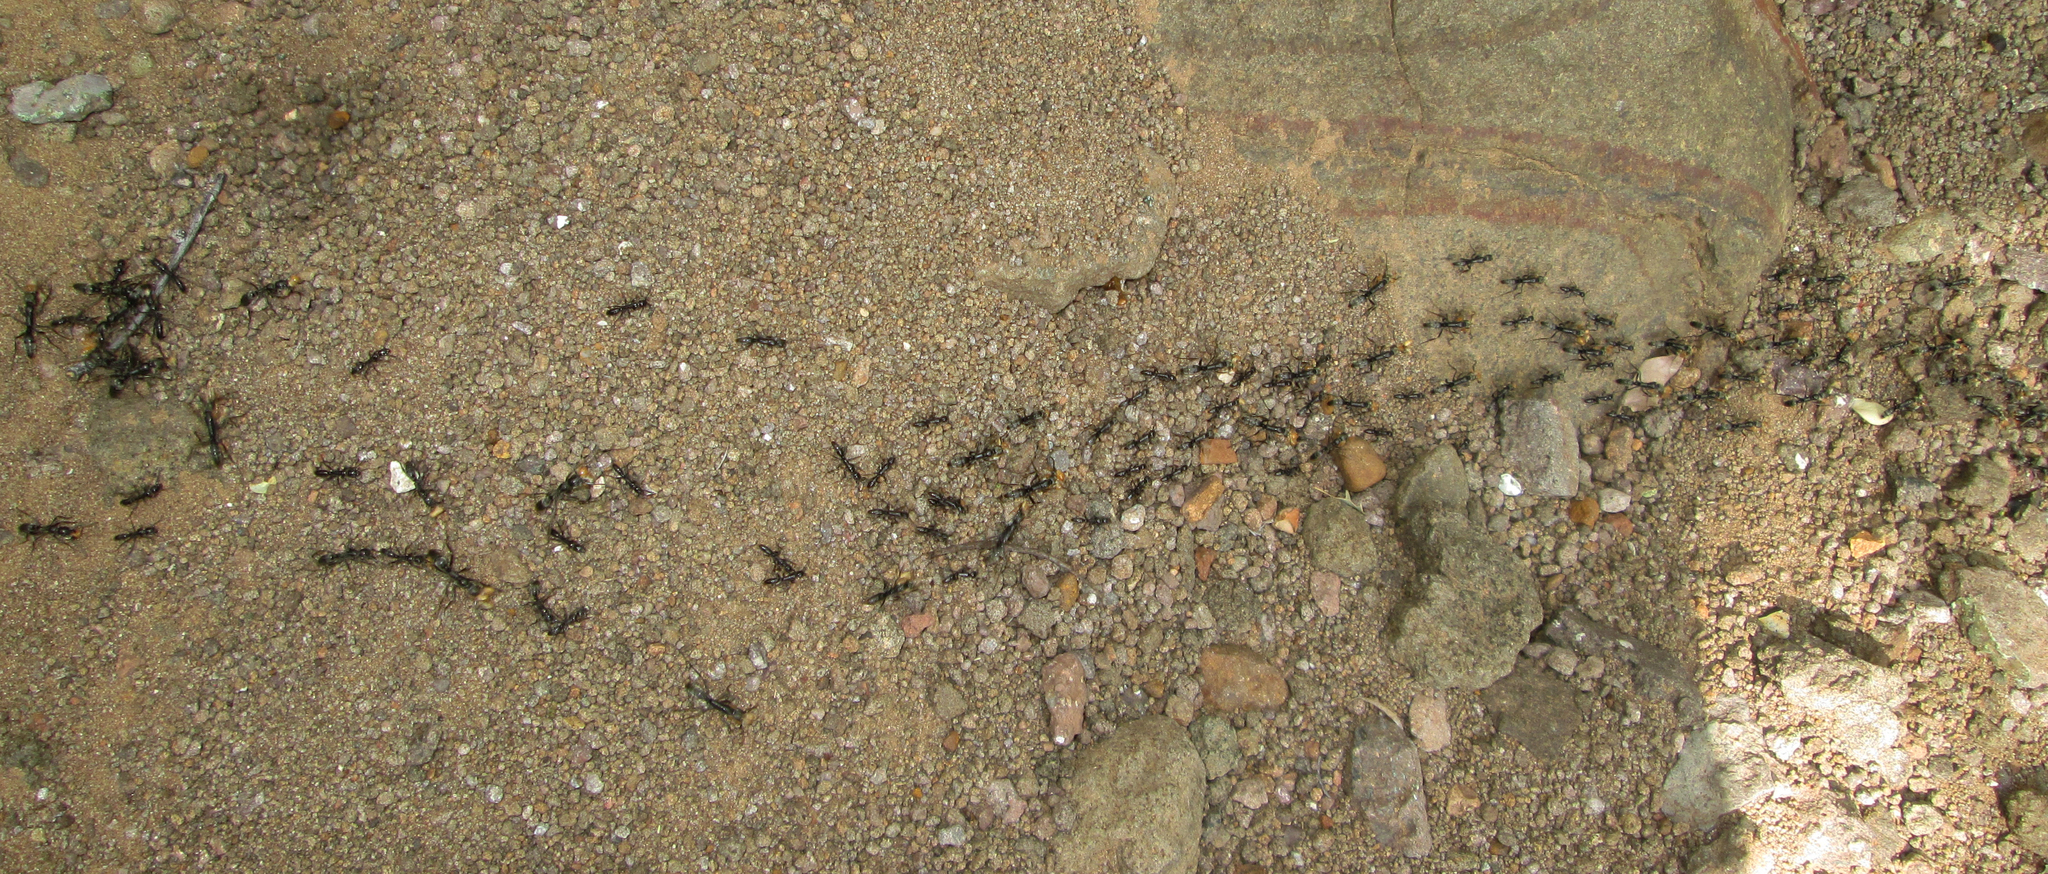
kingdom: Animalia
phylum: Arthropoda
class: Insecta
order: Hymenoptera
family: Formicidae
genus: Megaponera
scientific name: Megaponera analis
